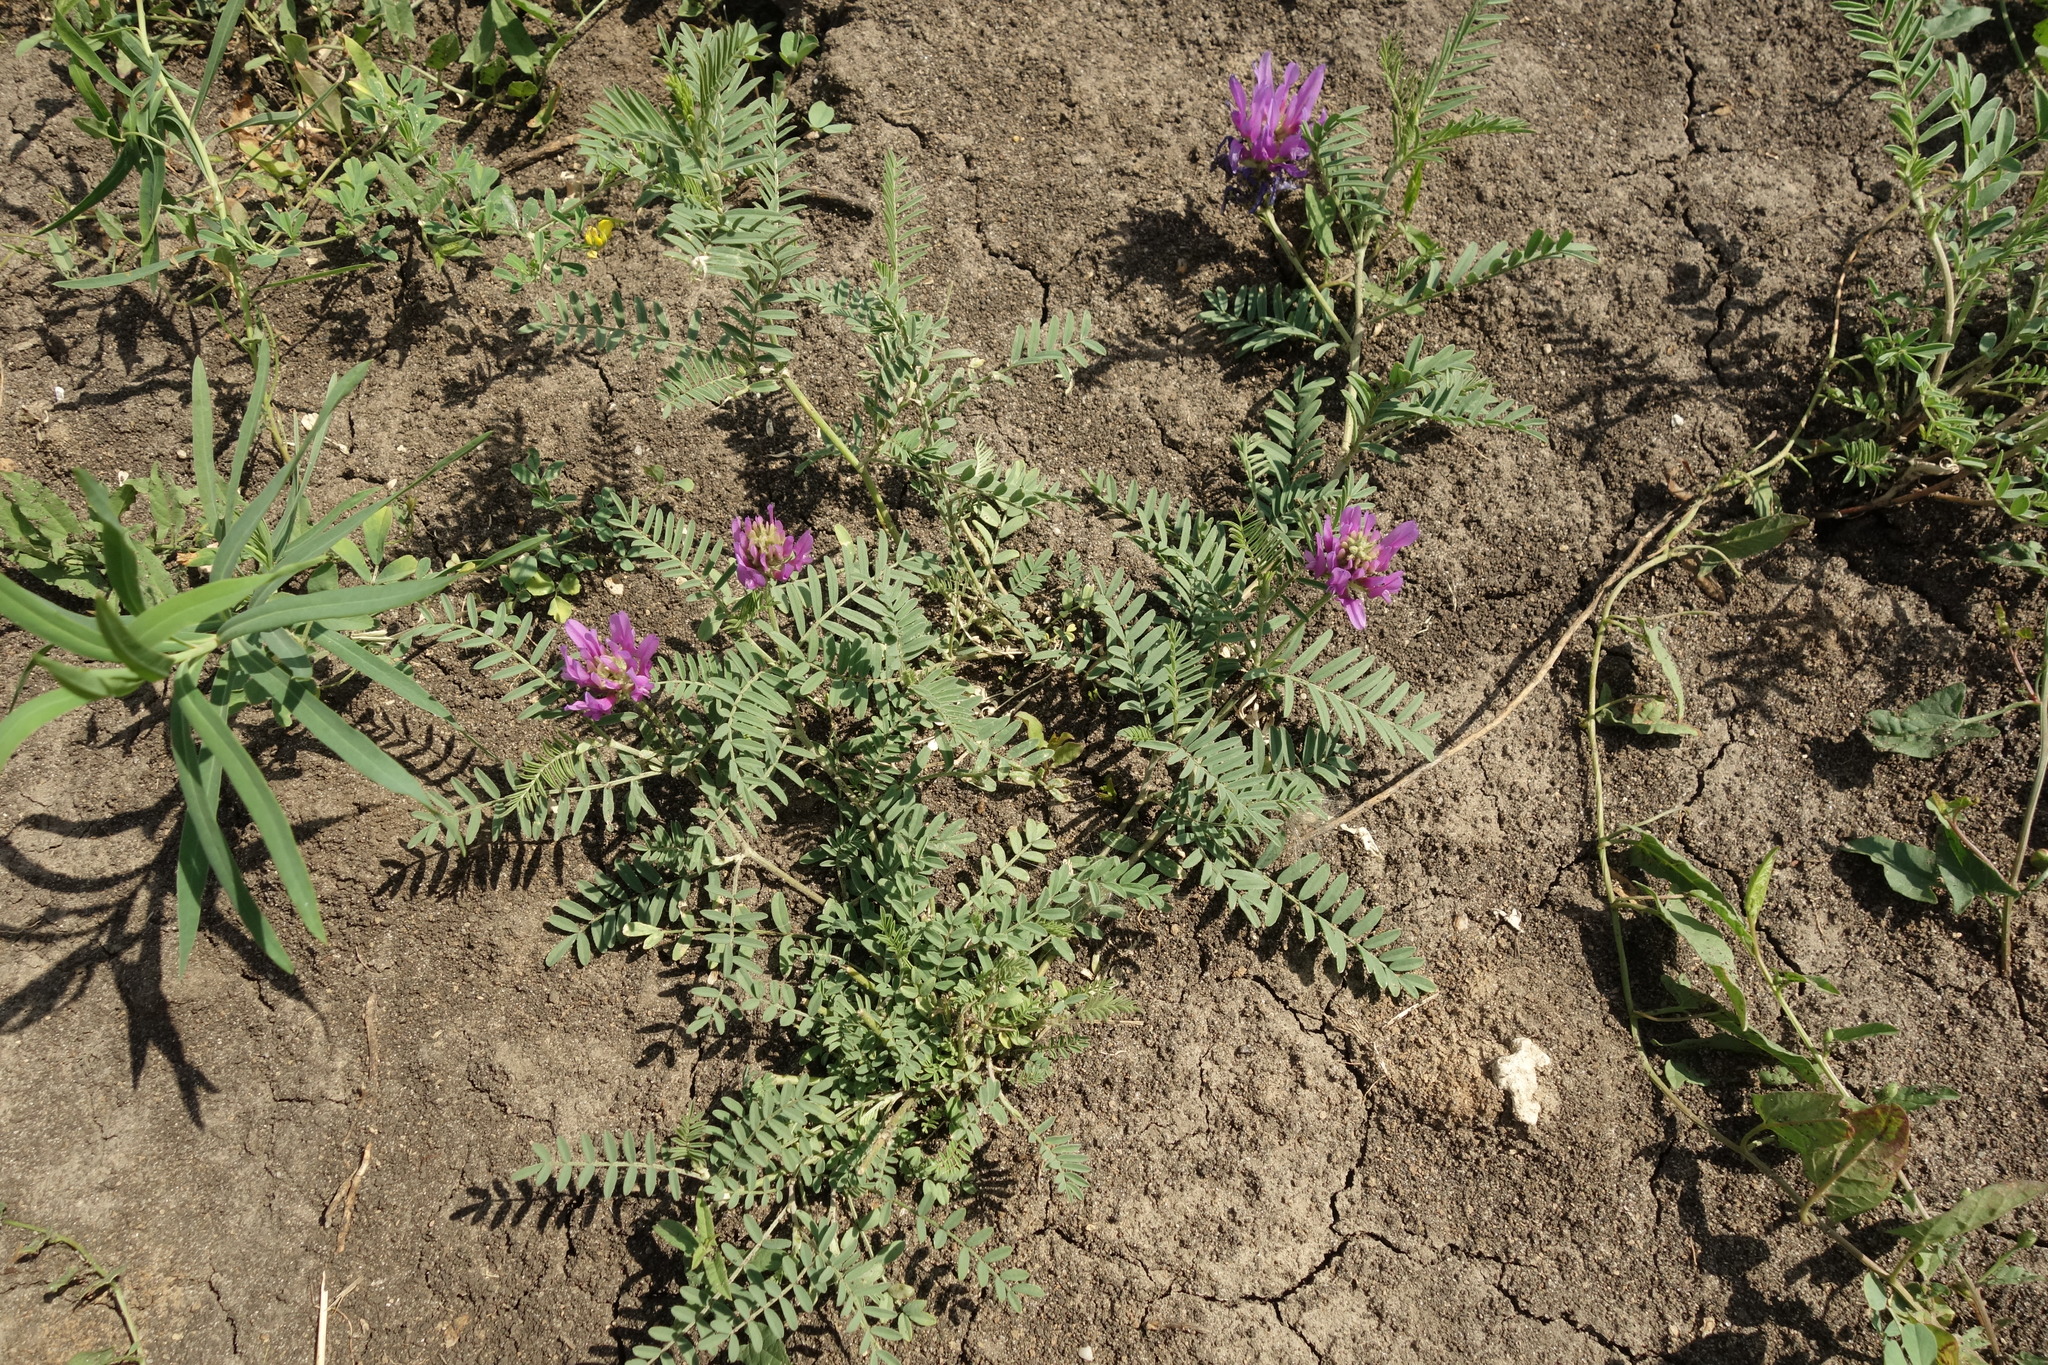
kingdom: Plantae
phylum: Tracheophyta
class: Magnoliopsida
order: Fabales
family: Fabaceae
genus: Astragalus
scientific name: Astragalus onobrychis
